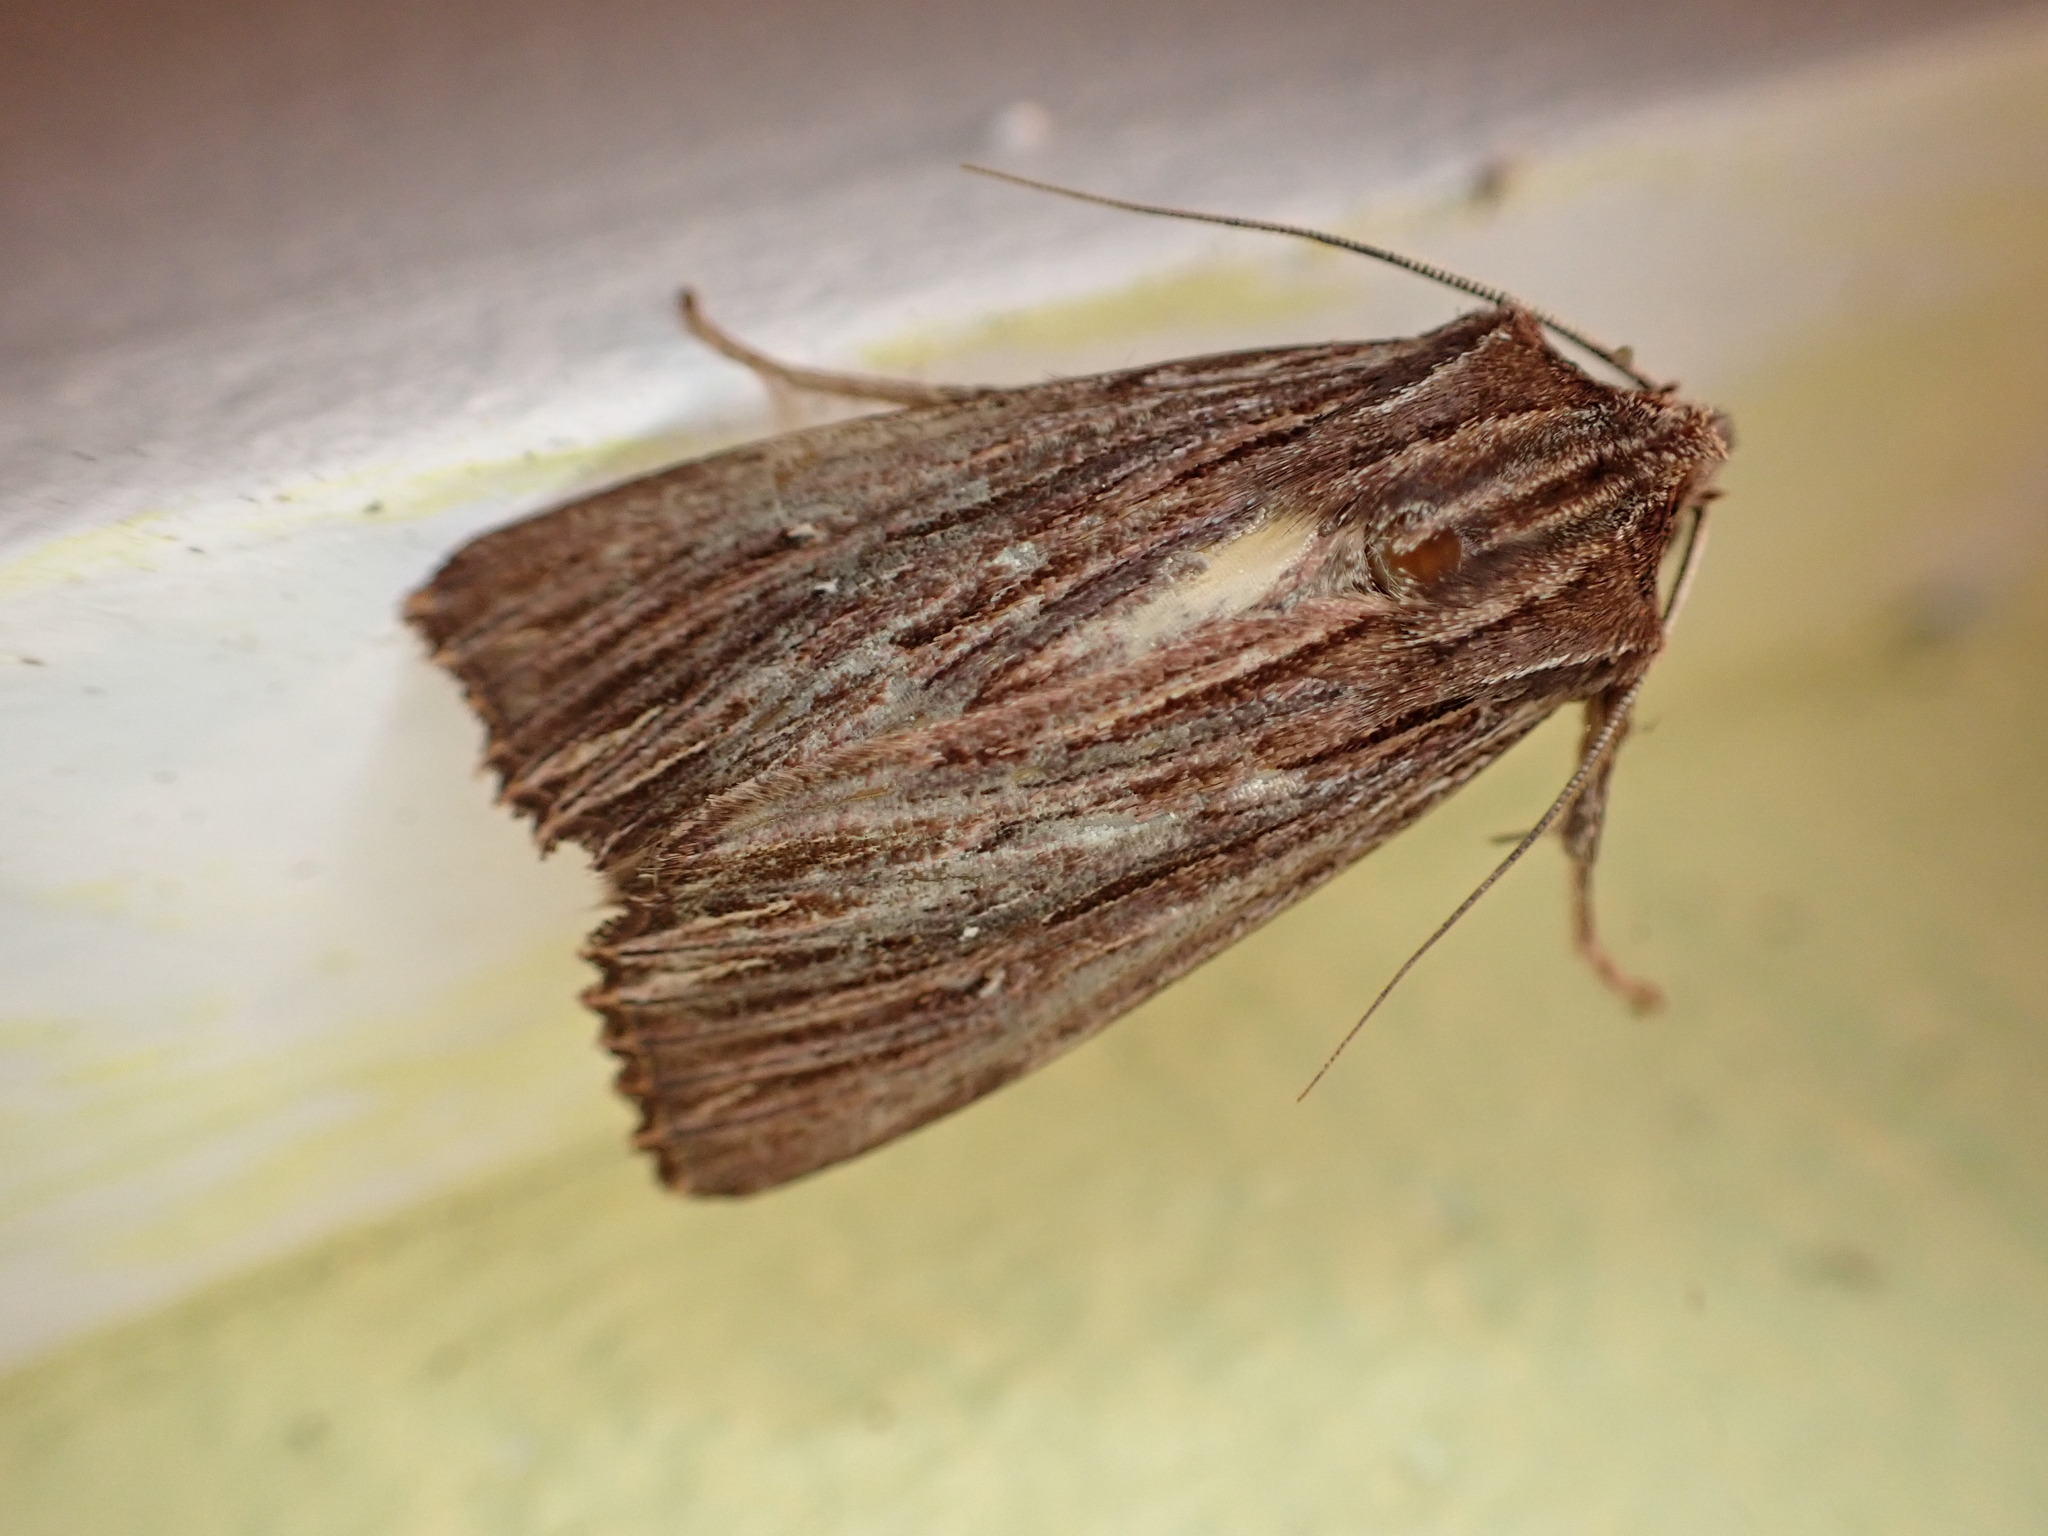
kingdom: Animalia
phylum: Arthropoda
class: Insecta
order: Lepidoptera
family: Noctuidae
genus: Ichneutica
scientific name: Ichneutica
